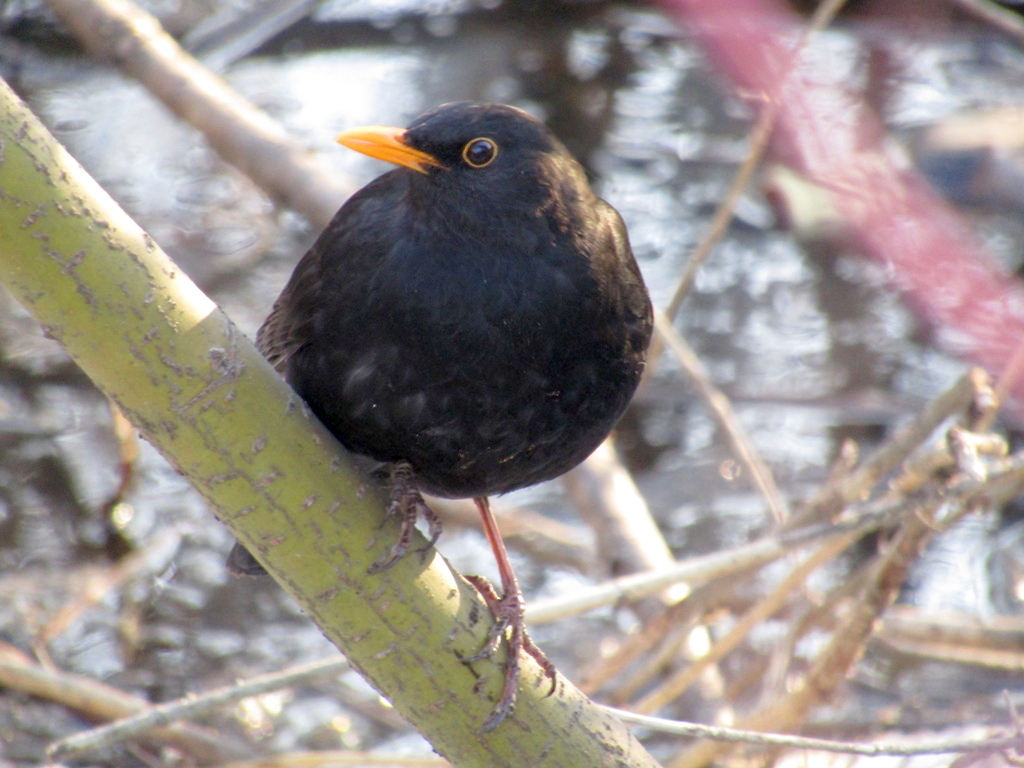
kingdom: Animalia
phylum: Chordata
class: Aves
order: Passeriformes
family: Turdidae
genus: Turdus
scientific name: Turdus merula
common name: Common blackbird
